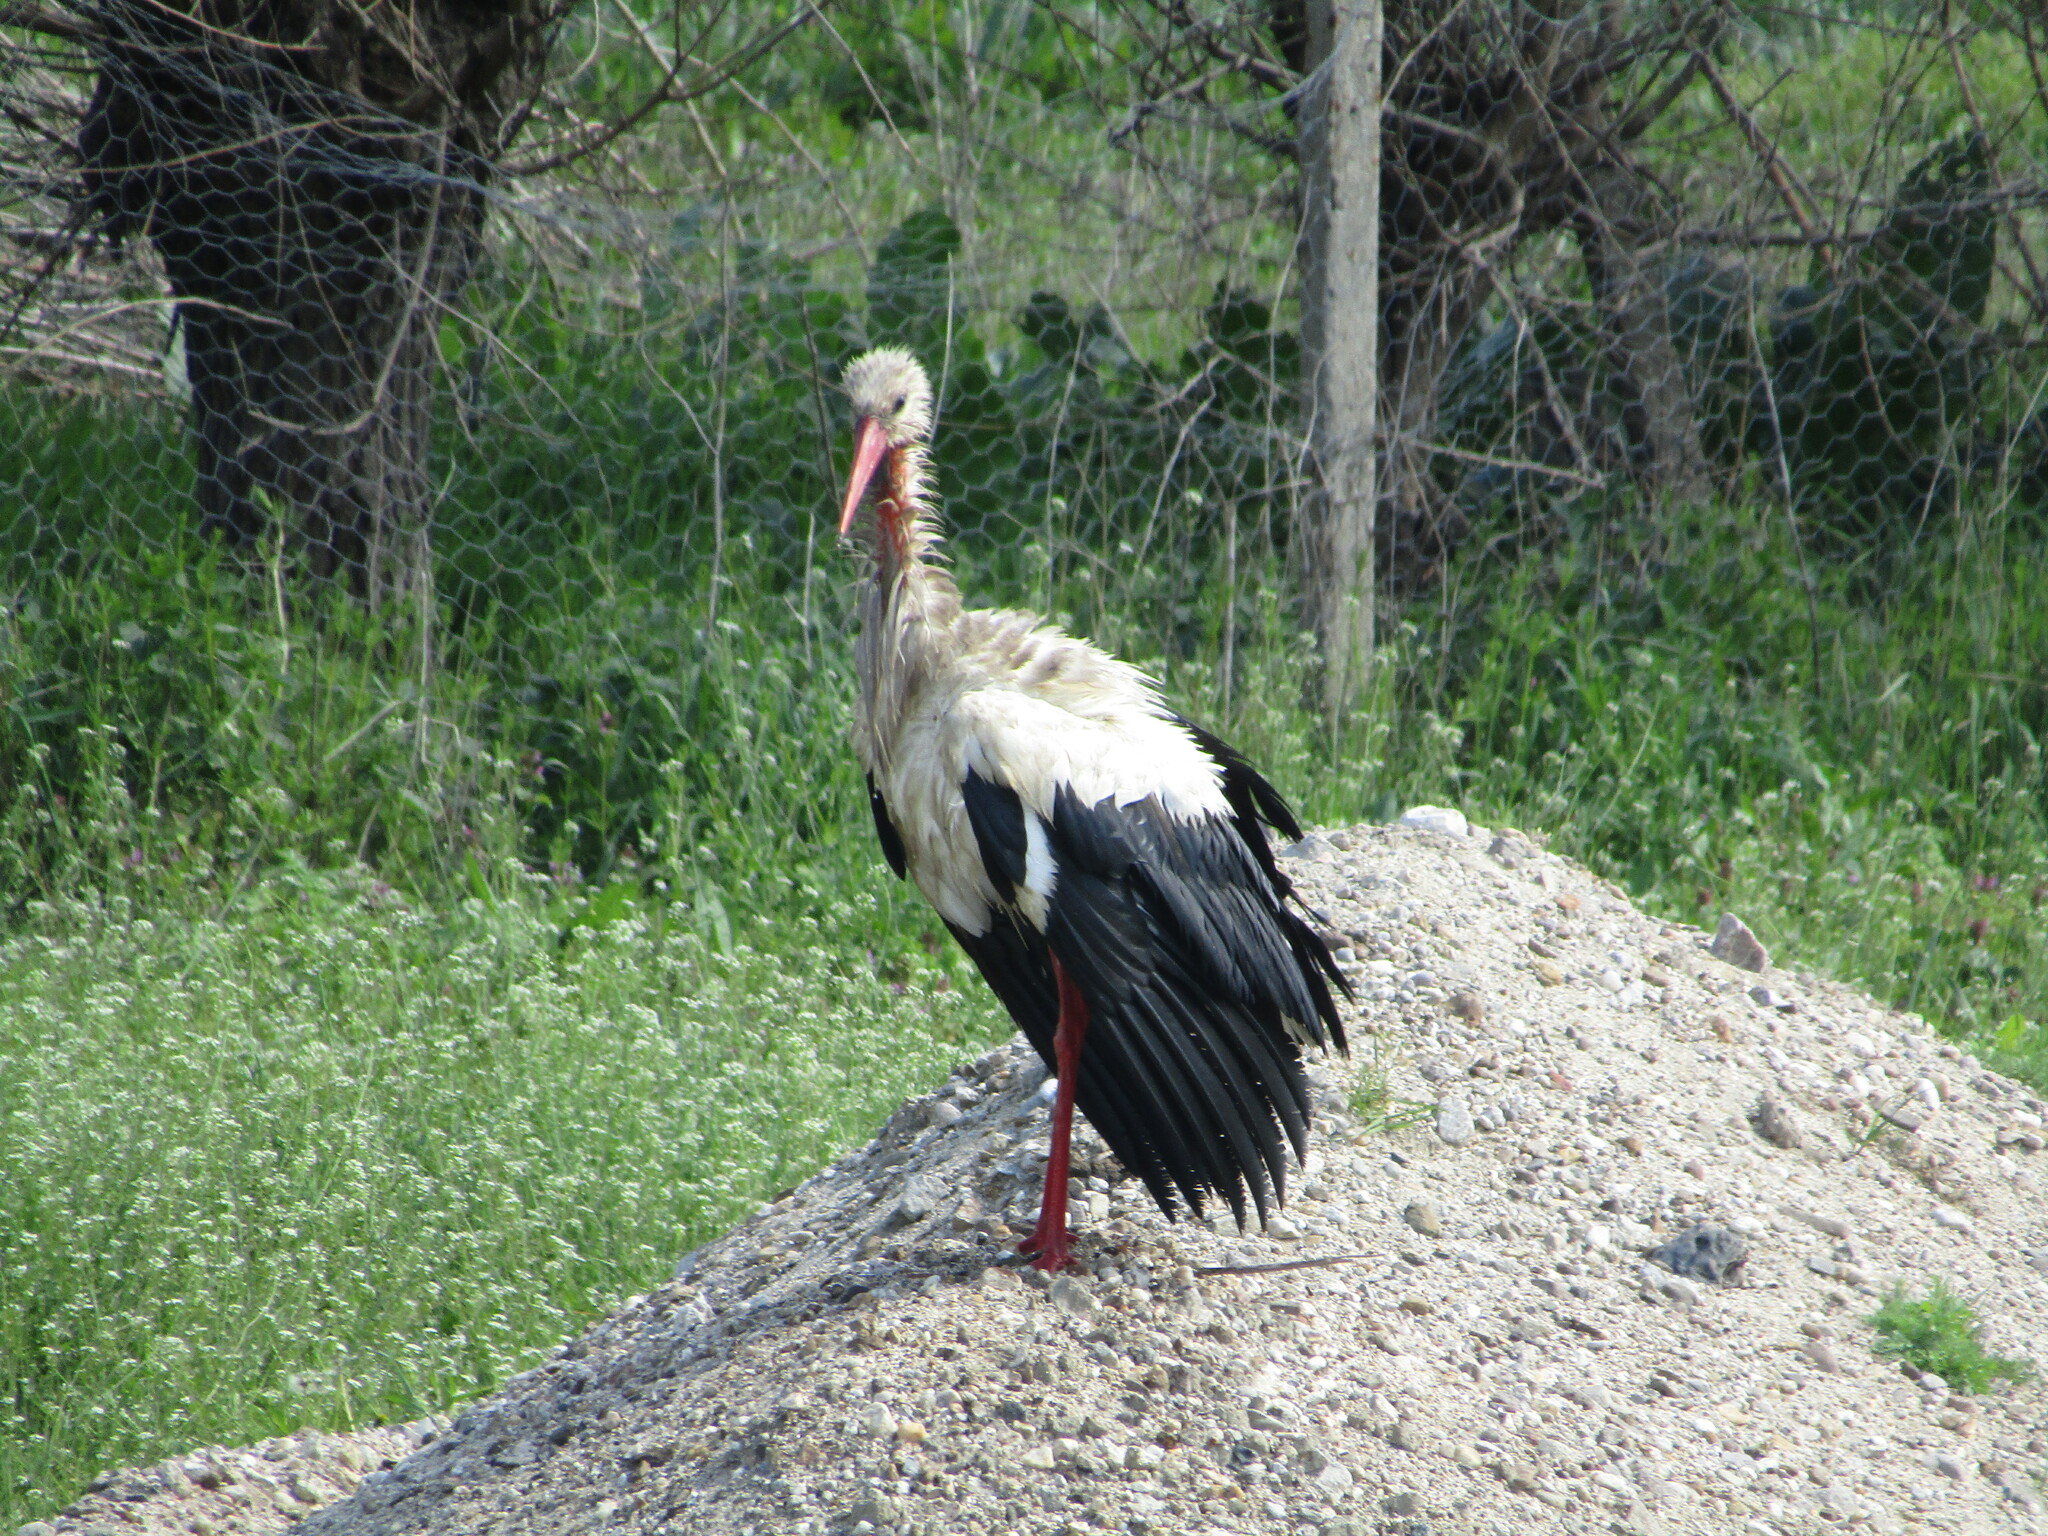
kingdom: Animalia
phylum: Chordata
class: Aves
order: Ciconiiformes
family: Ciconiidae
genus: Ciconia
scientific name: Ciconia ciconia
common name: White stork
